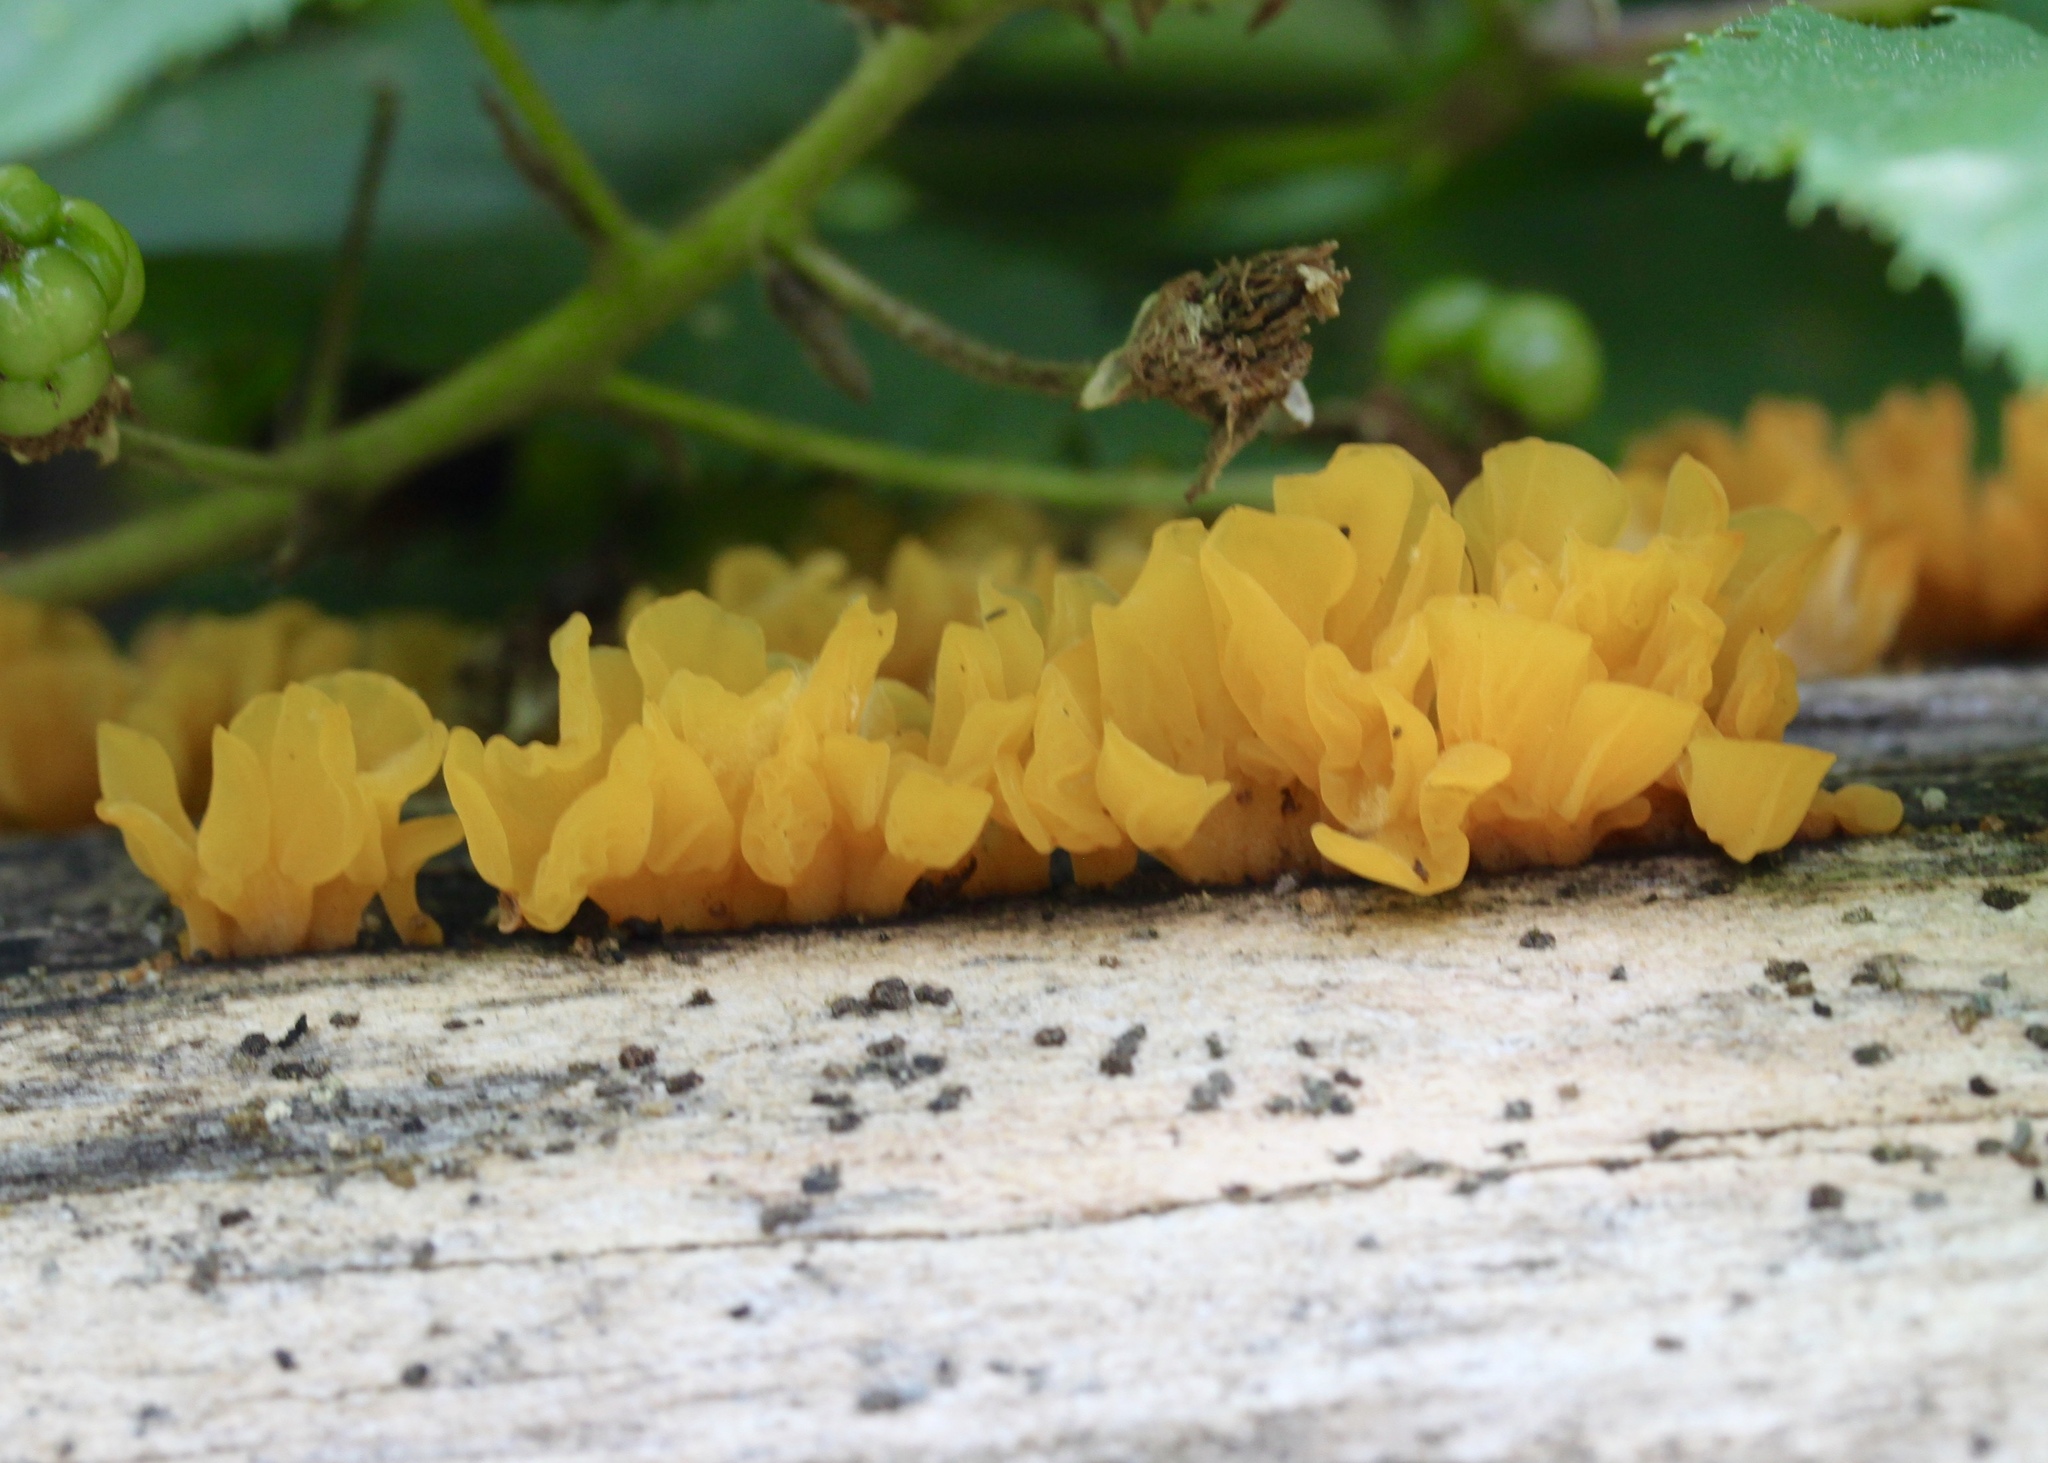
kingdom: Fungi
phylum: Basidiomycota
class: Dacrymycetes
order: Dacrymycetales
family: Dacrymycetaceae
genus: Dacrymyces
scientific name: Dacrymyces spathularius
